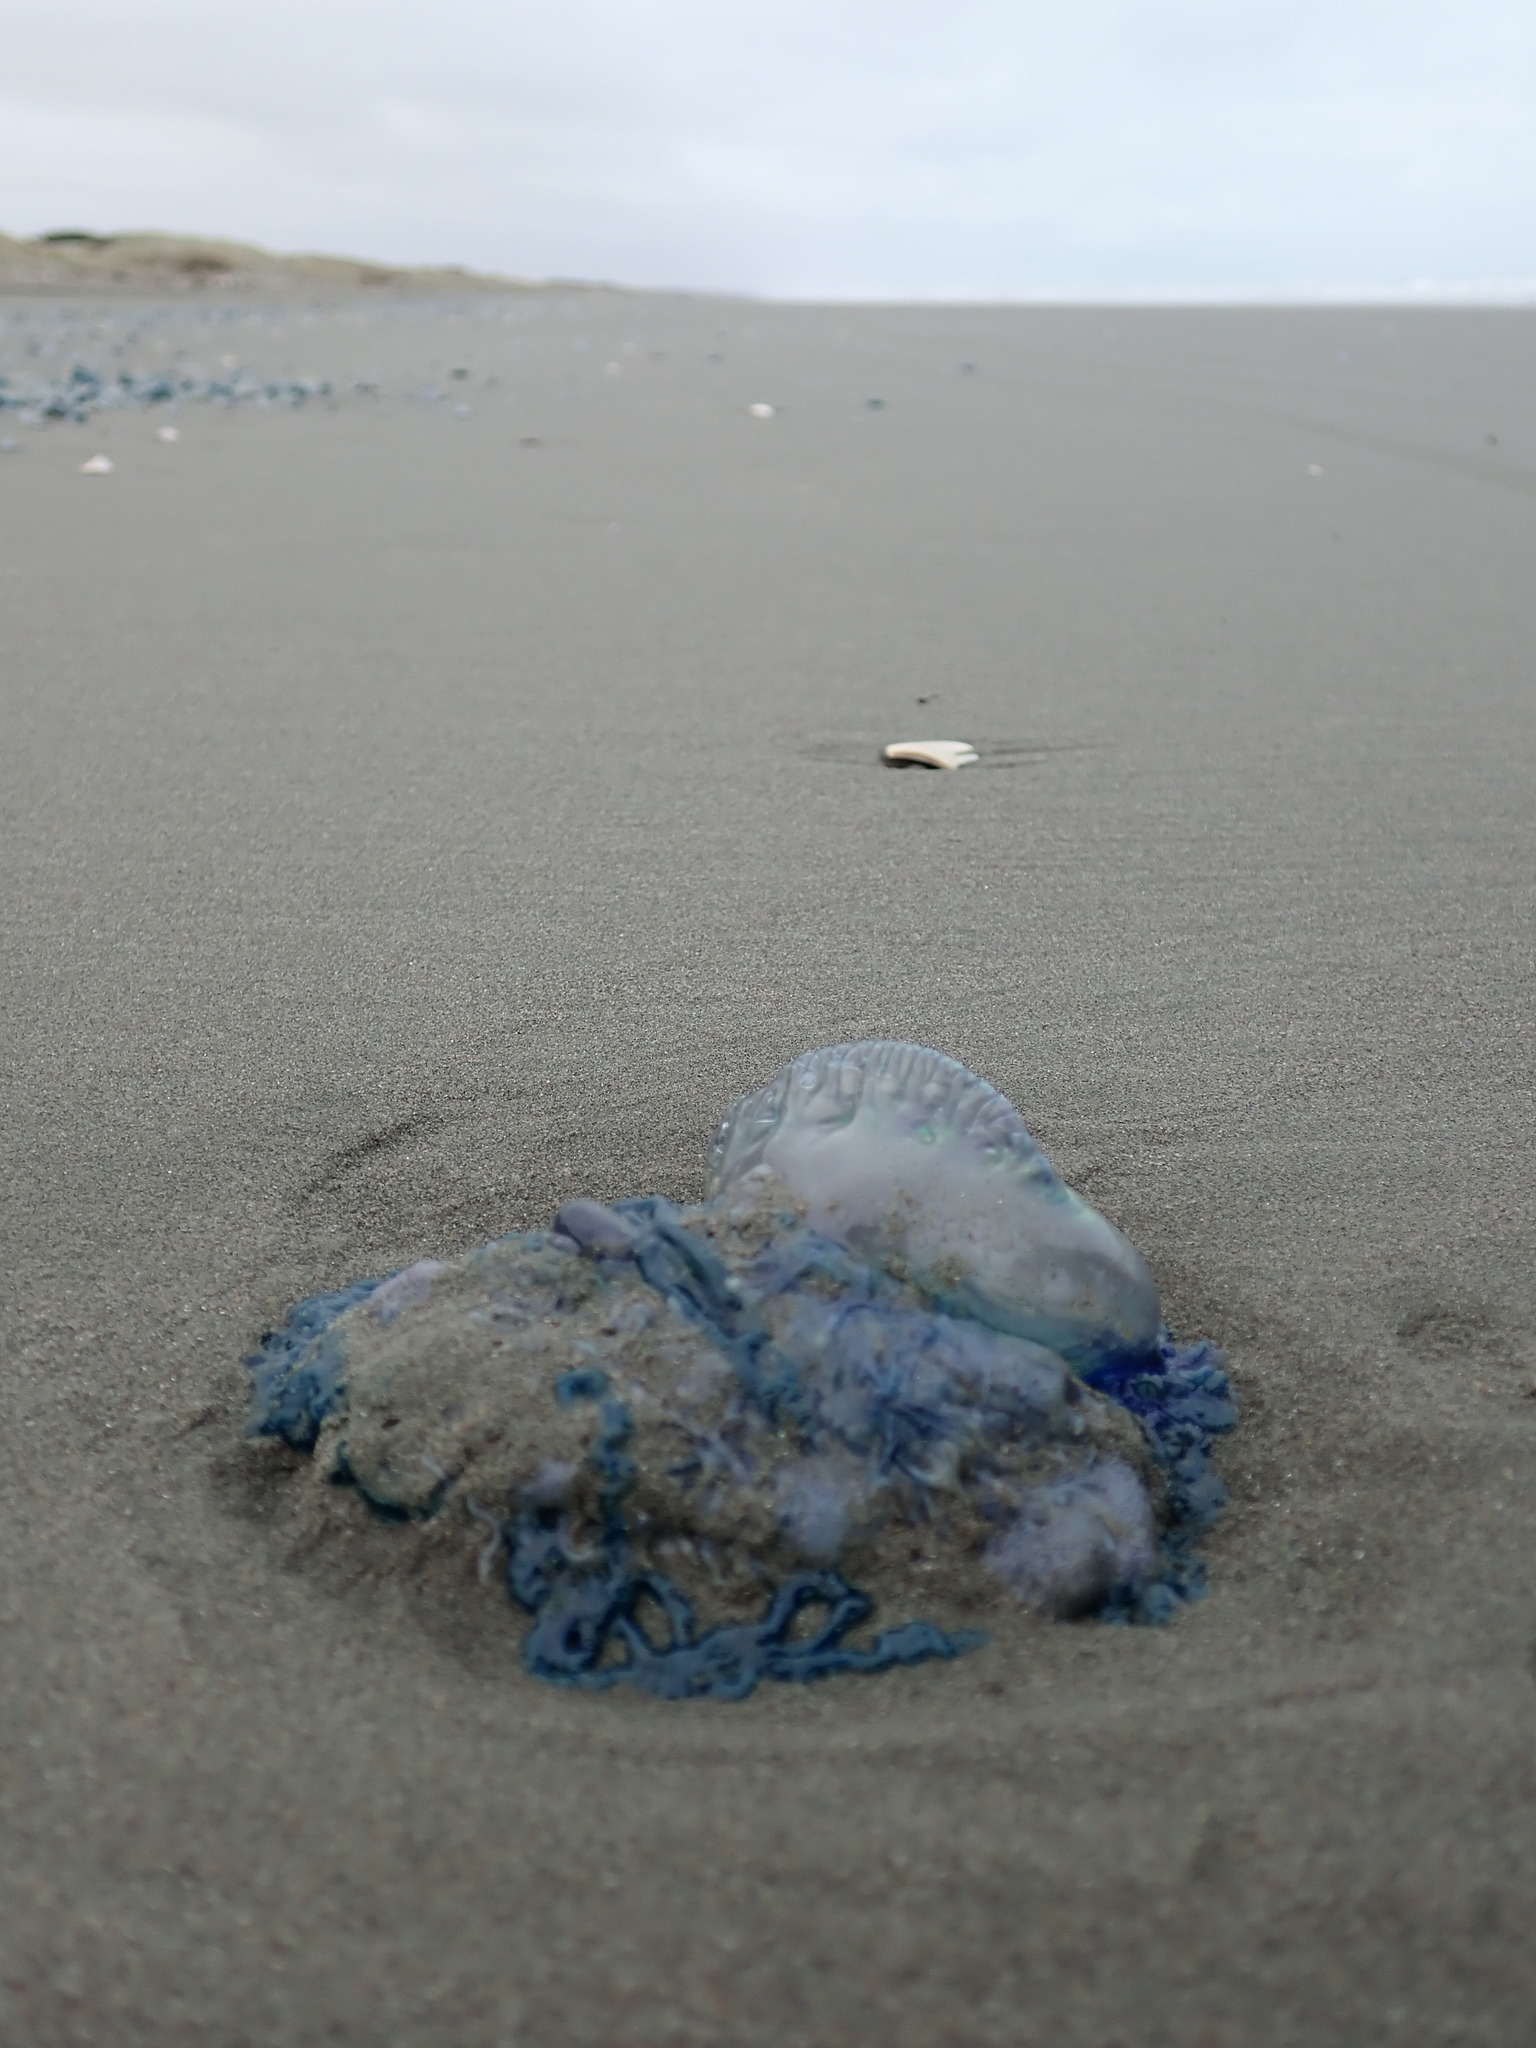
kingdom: Animalia
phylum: Cnidaria
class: Hydrozoa
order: Siphonophorae
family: Physaliidae
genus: Physalia
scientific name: Physalia physalis
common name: Portuguese man-of-war
